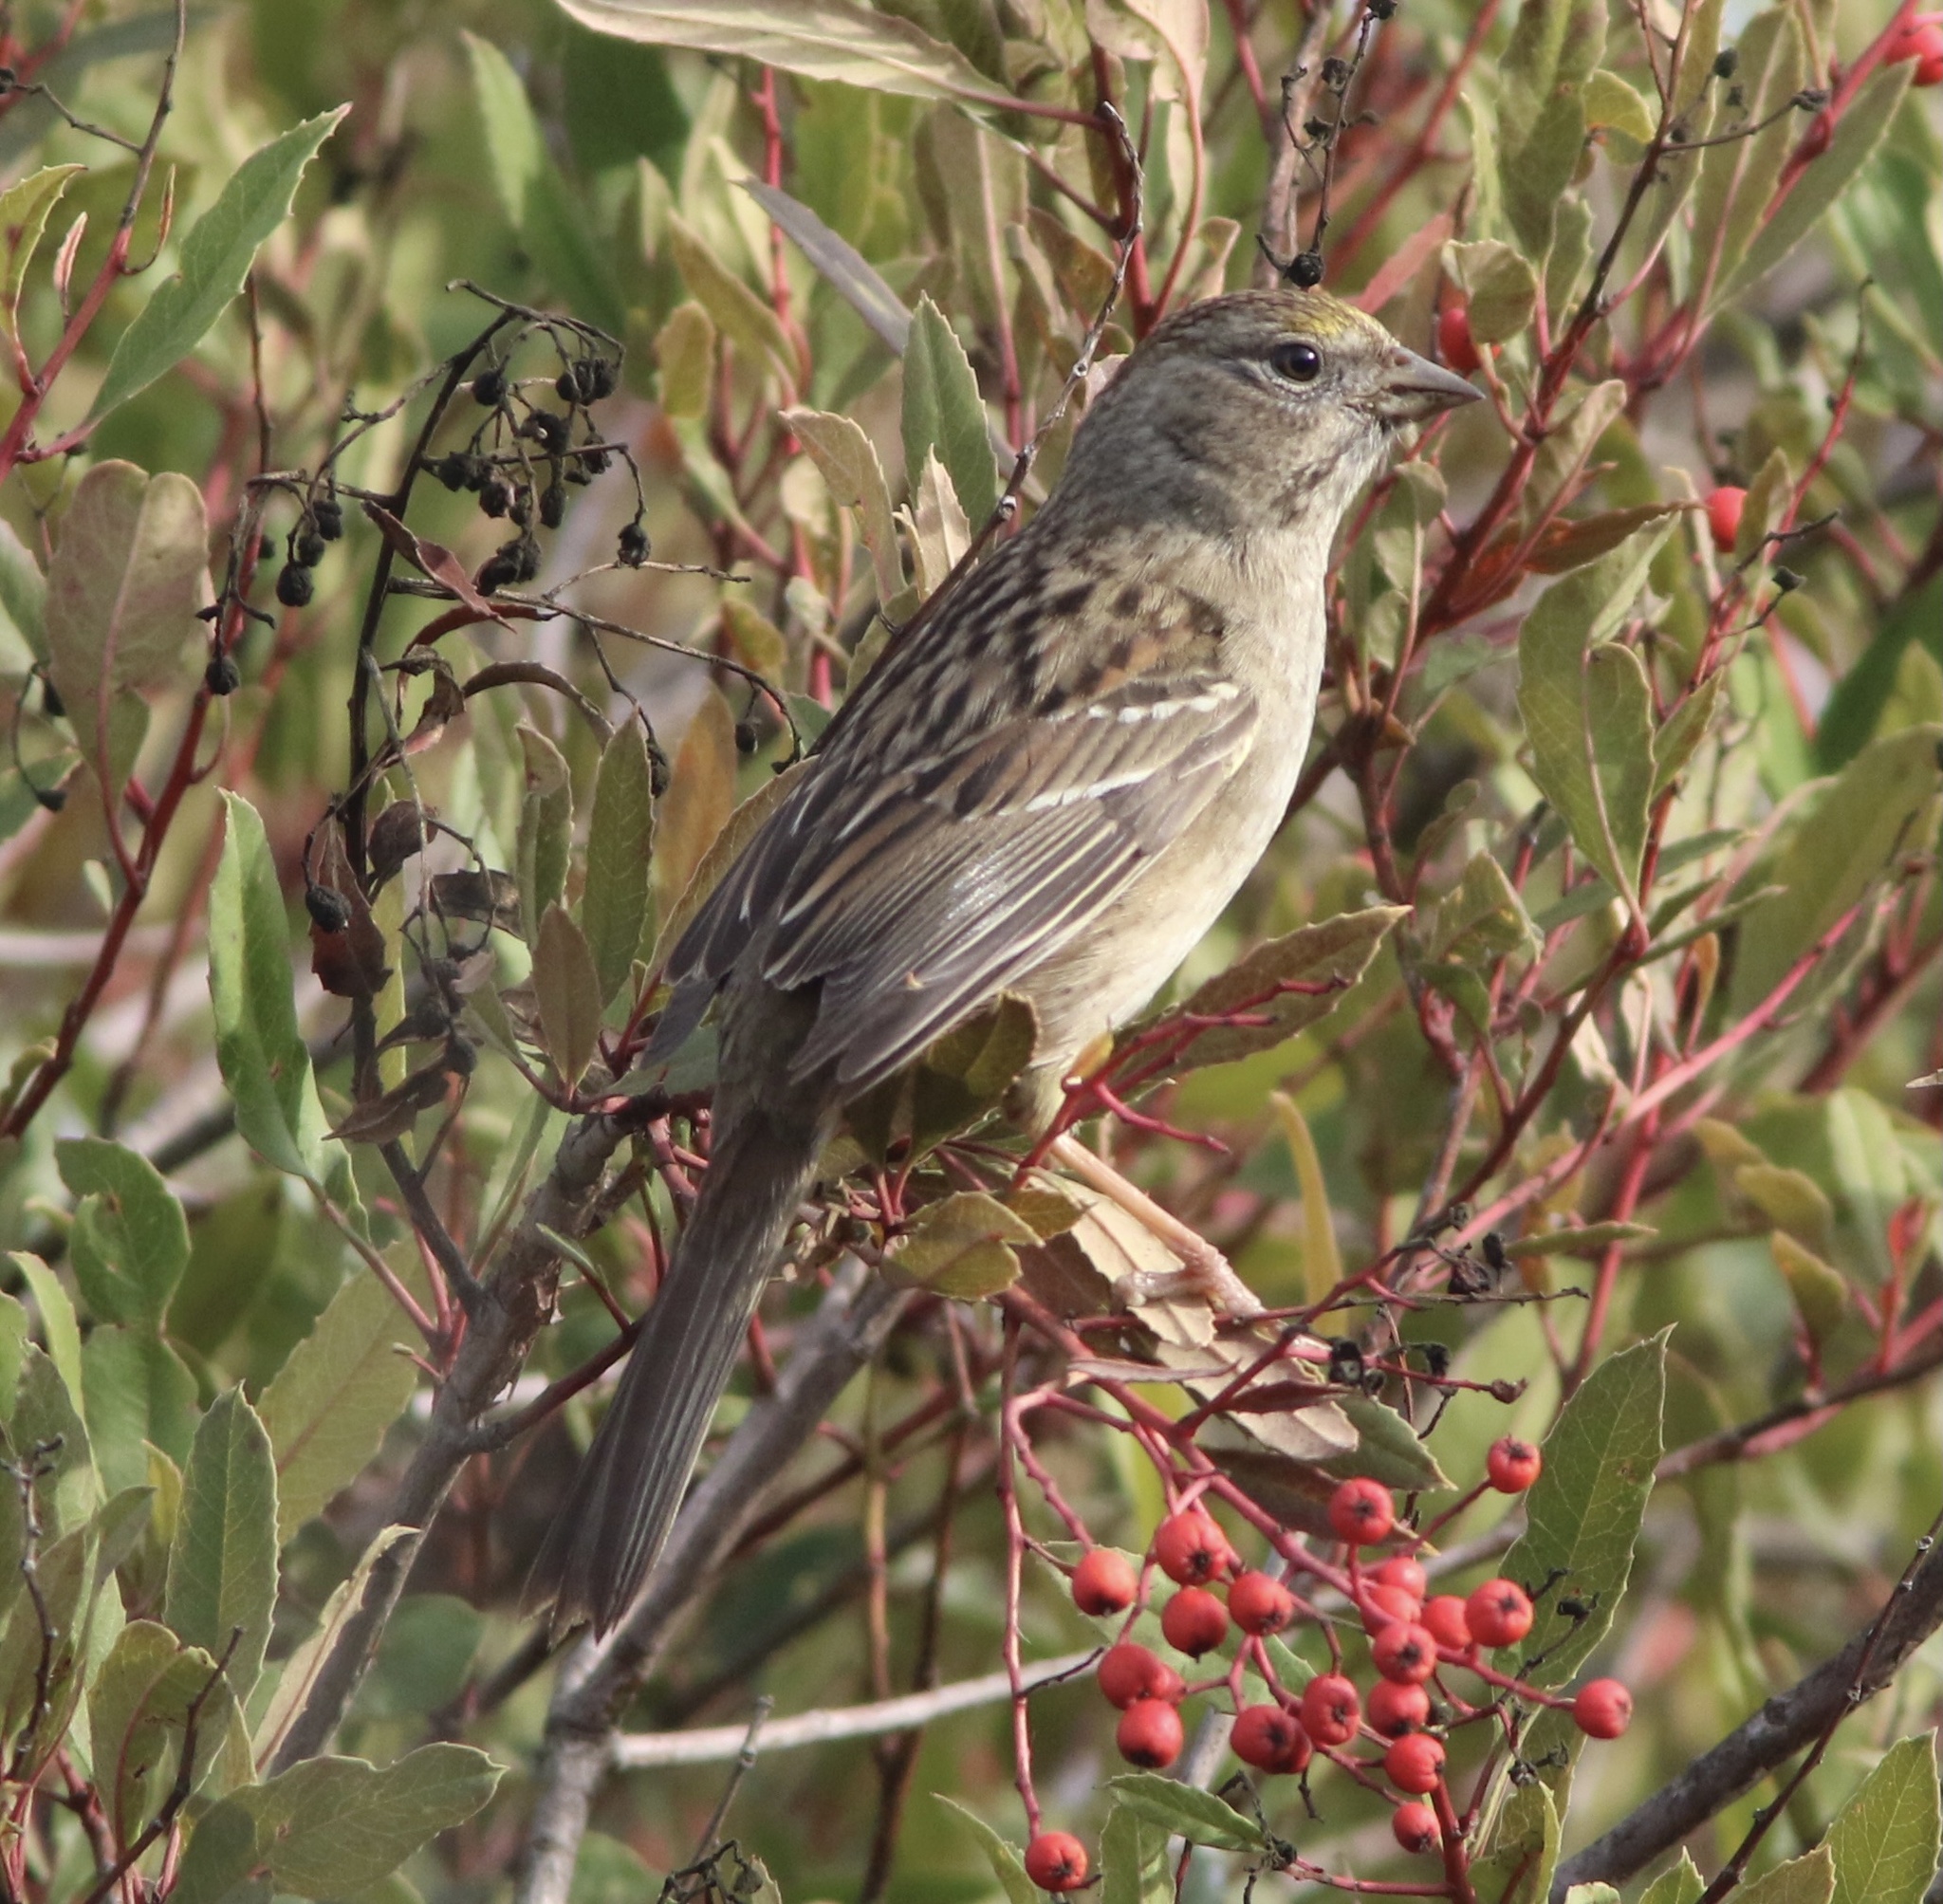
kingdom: Animalia
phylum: Chordata
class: Aves
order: Passeriformes
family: Passerellidae
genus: Zonotrichia
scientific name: Zonotrichia atricapilla
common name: Golden-crowned sparrow
